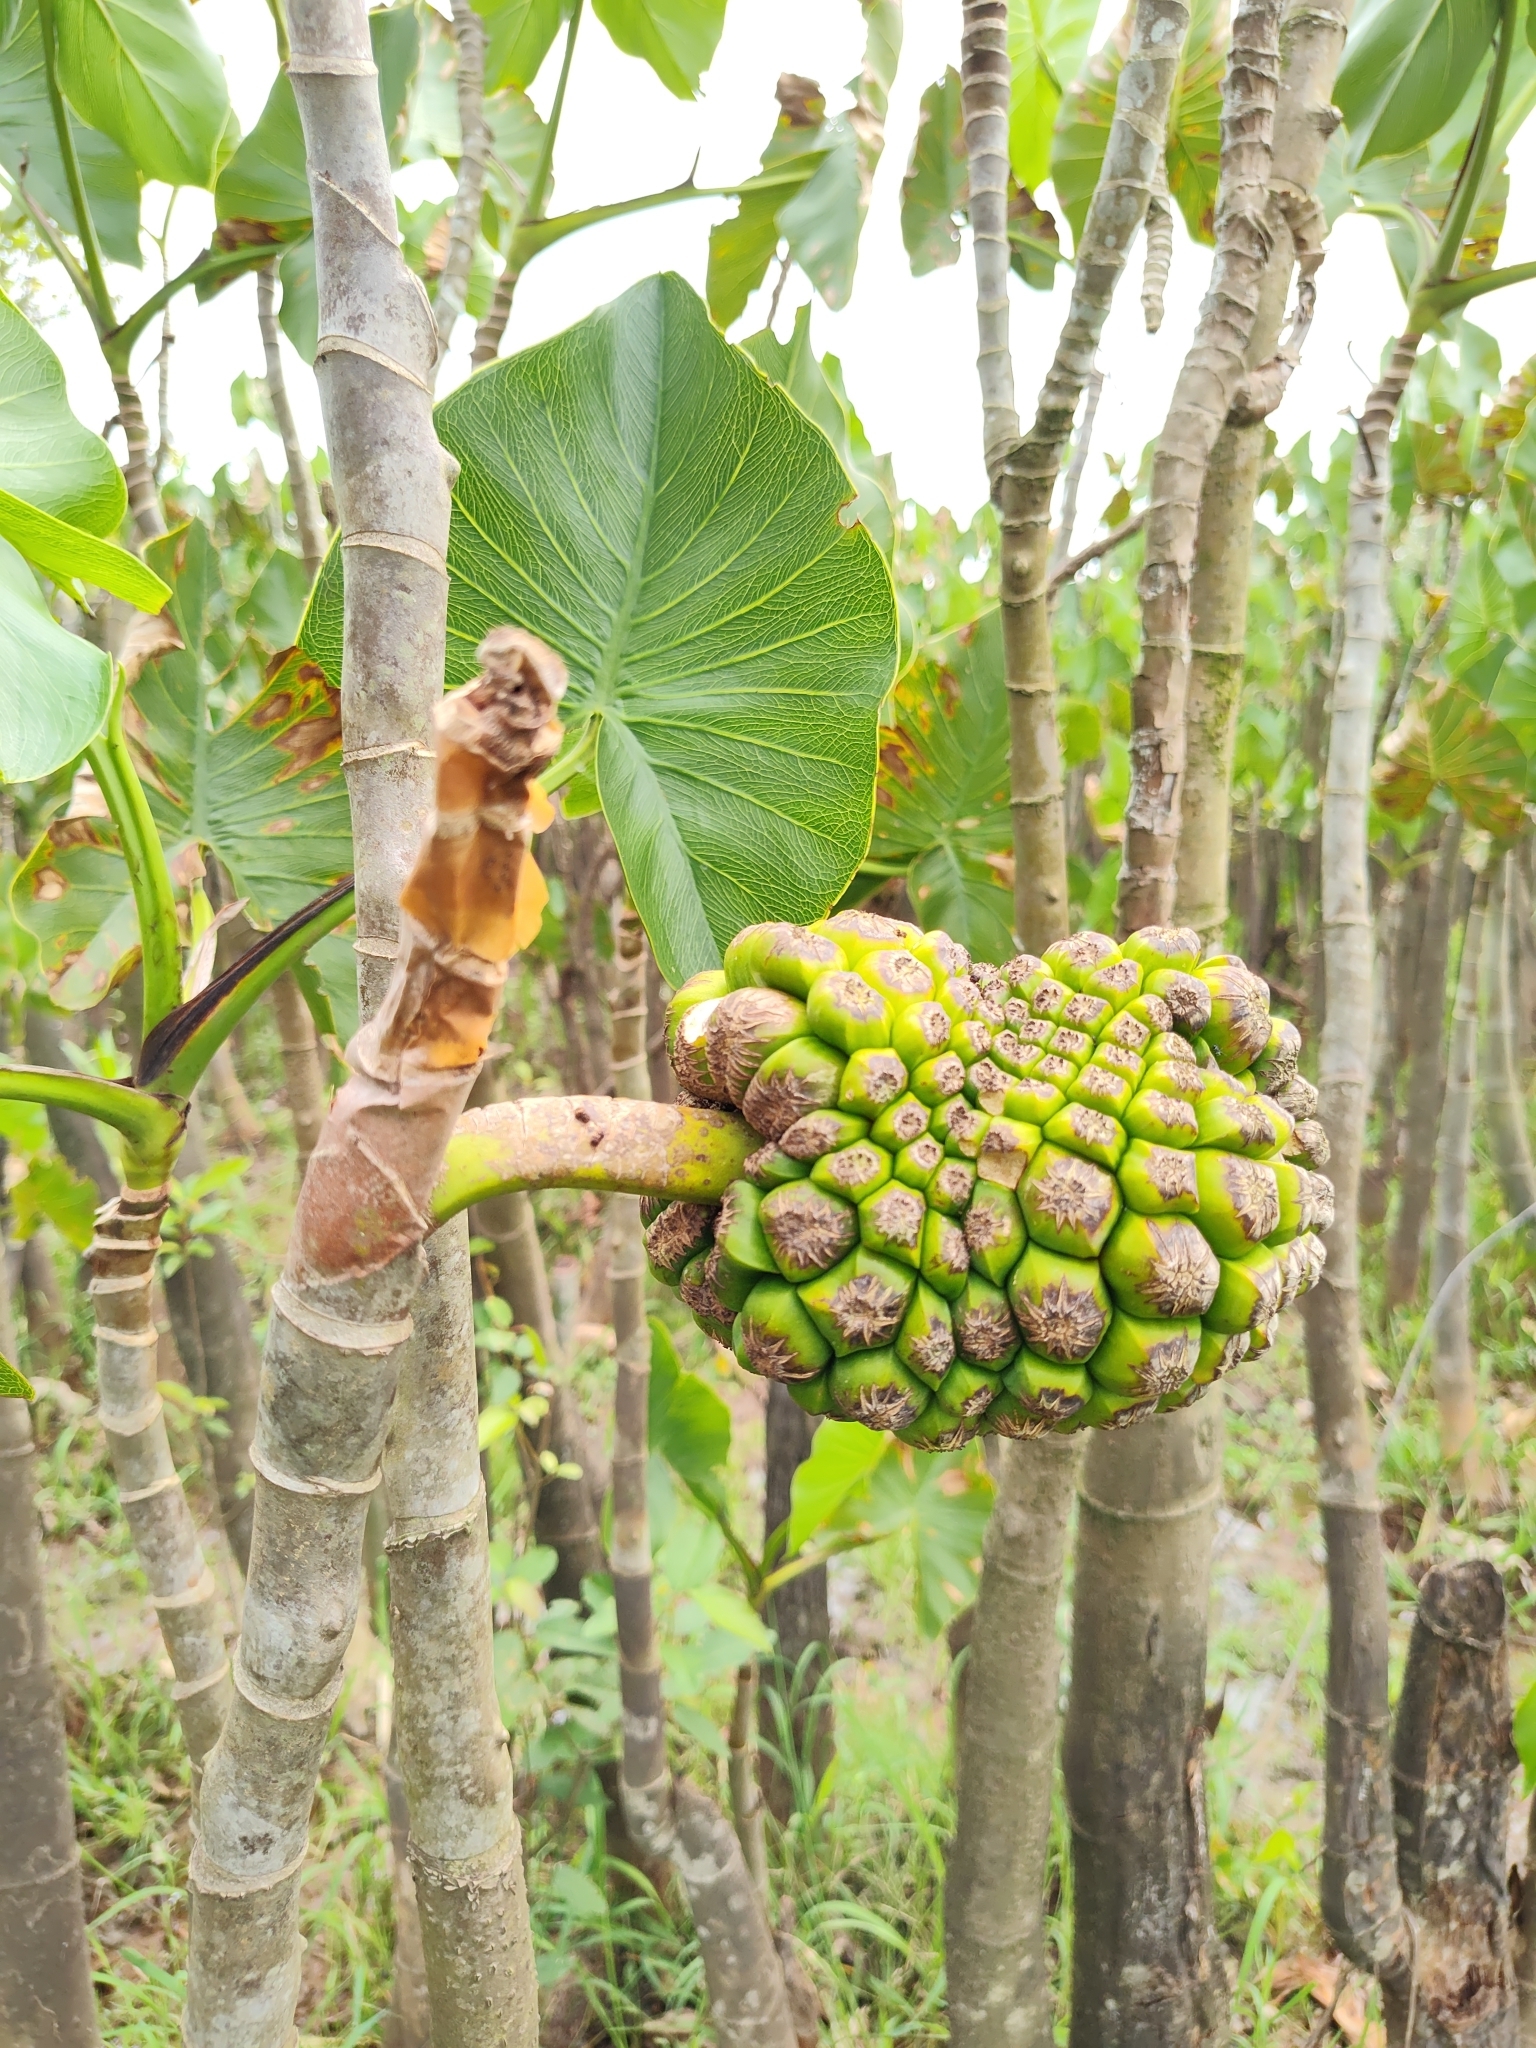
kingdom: Plantae
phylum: Tracheophyta
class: Liliopsida
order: Alismatales
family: Araceae
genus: Montrichardia
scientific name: Montrichardia linifera
